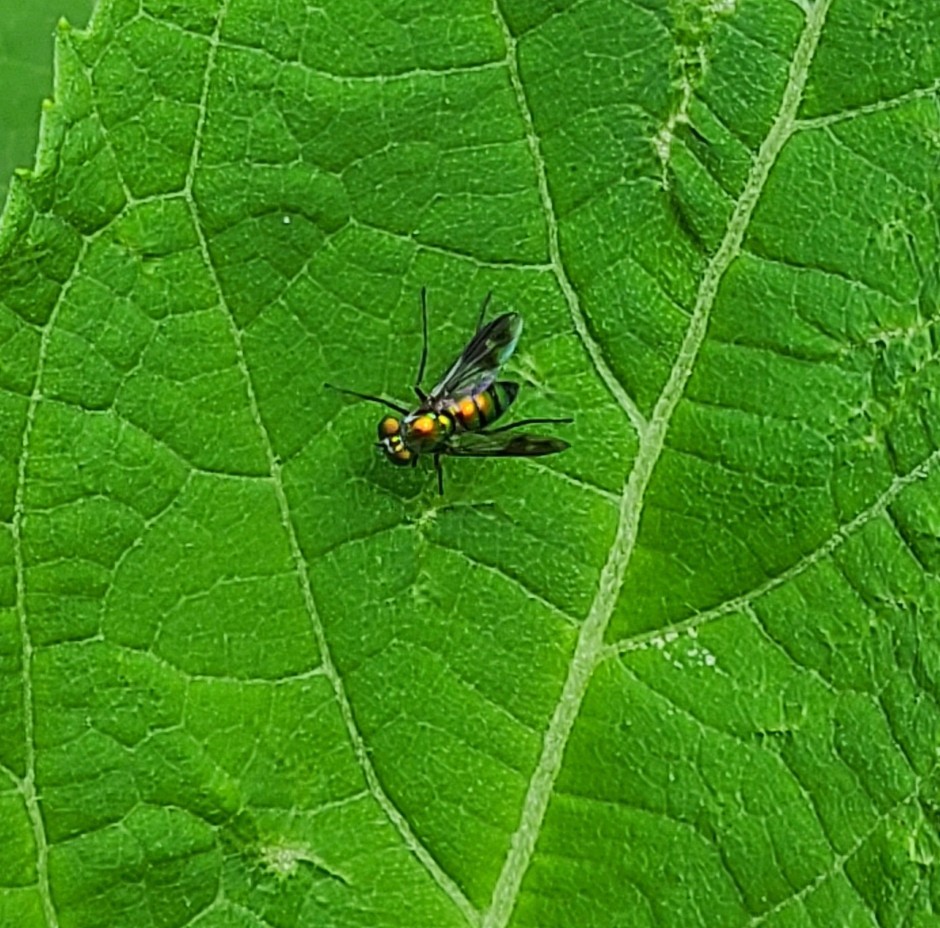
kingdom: Animalia
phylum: Arthropoda
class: Insecta
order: Diptera
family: Dolichopodidae
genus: Condylostylus
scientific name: Condylostylus patibulatus
